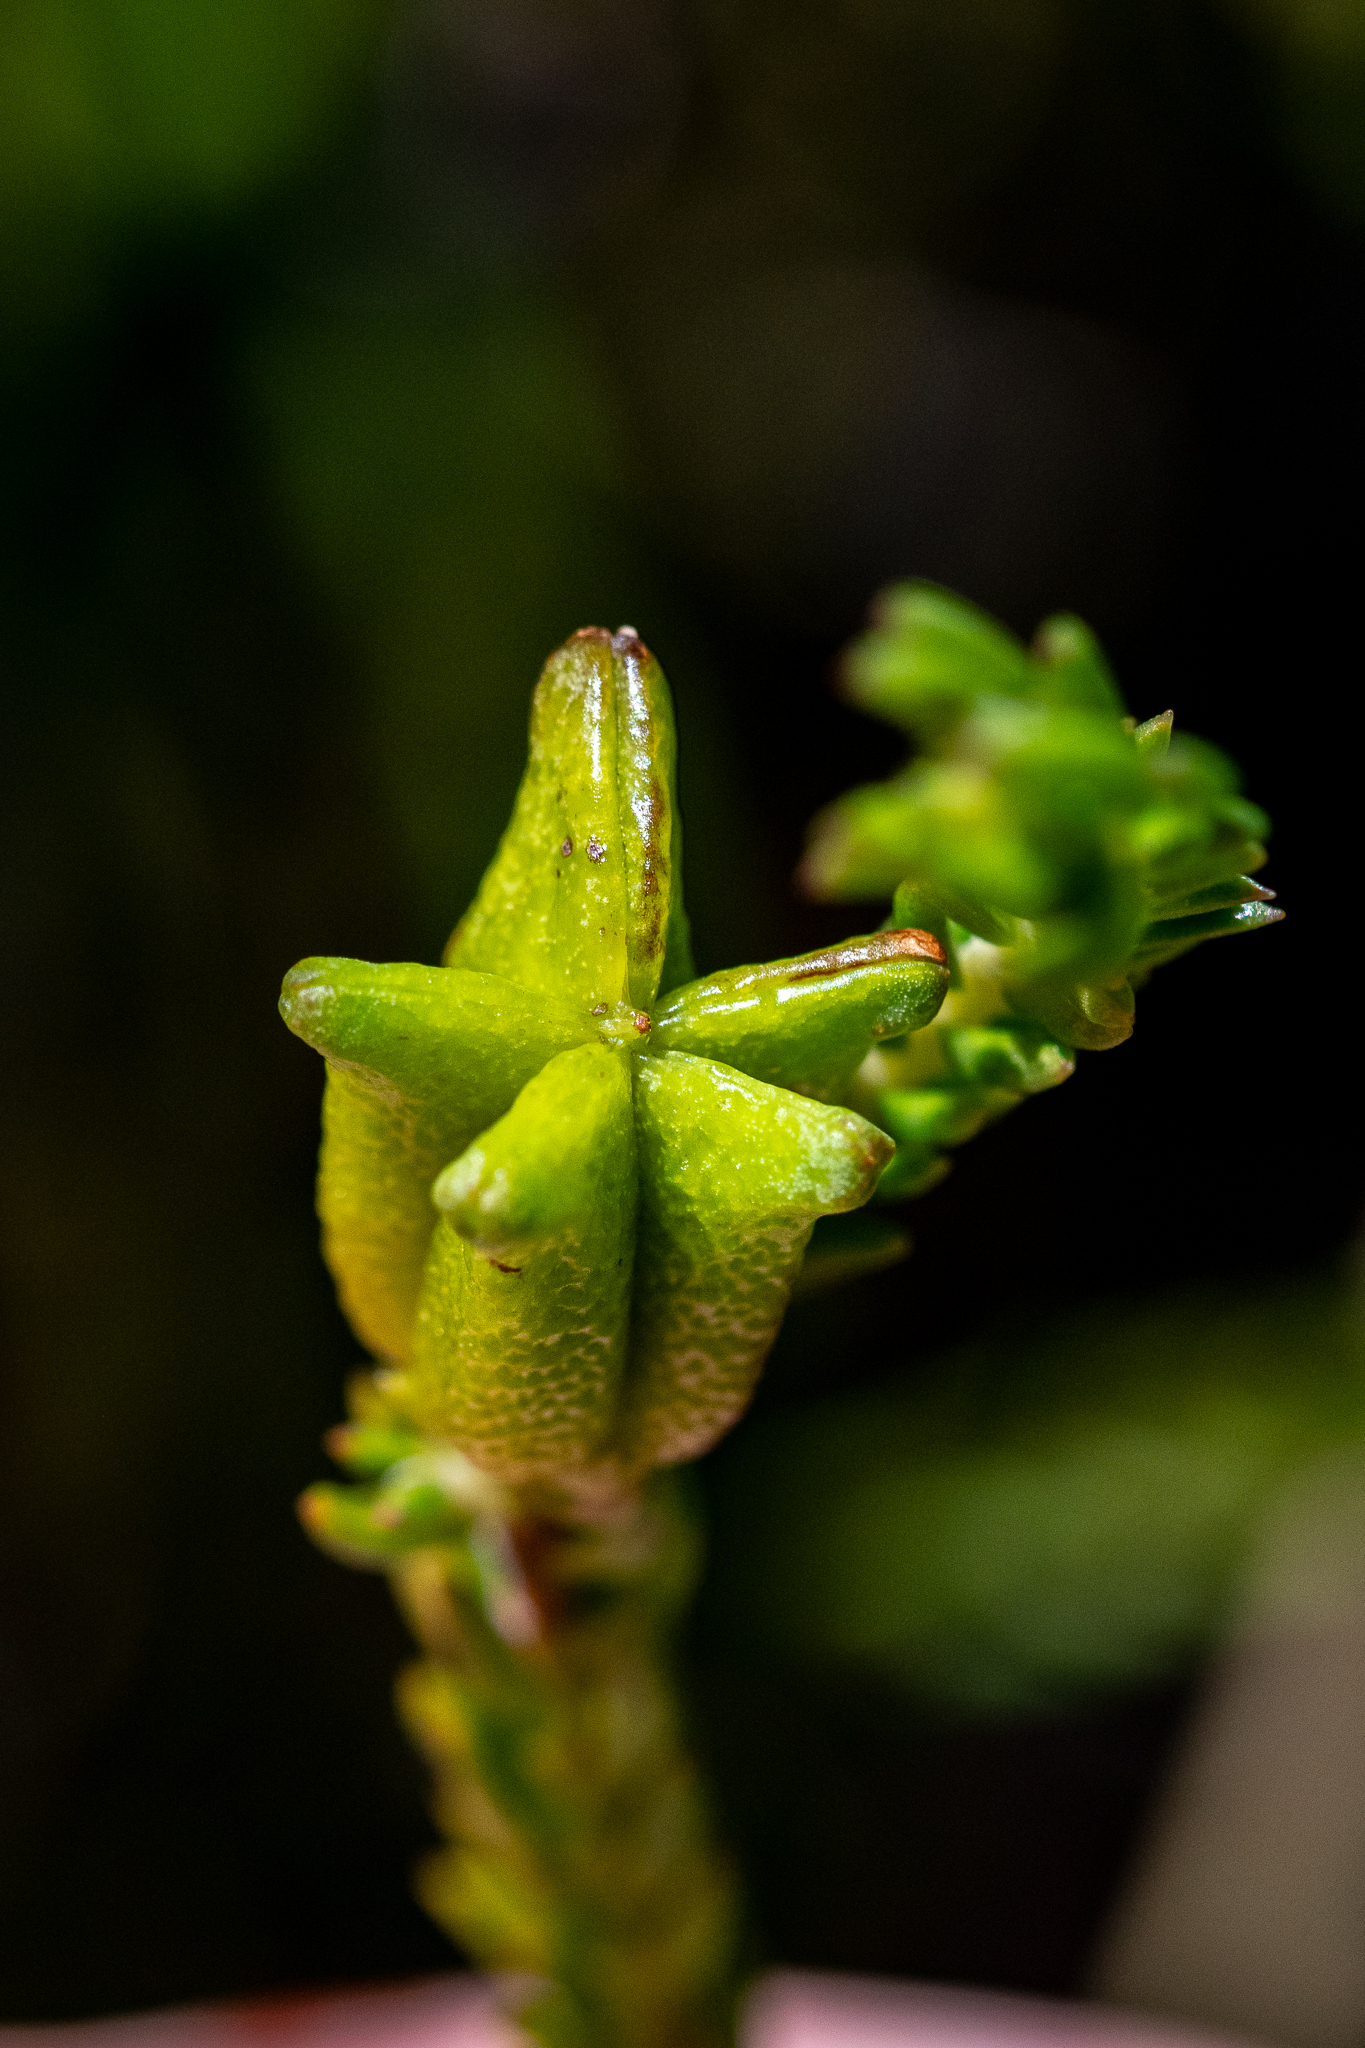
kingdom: Plantae
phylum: Tracheophyta
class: Magnoliopsida
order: Sapindales
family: Rutaceae
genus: Diosma
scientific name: Diosma oppositifolia
